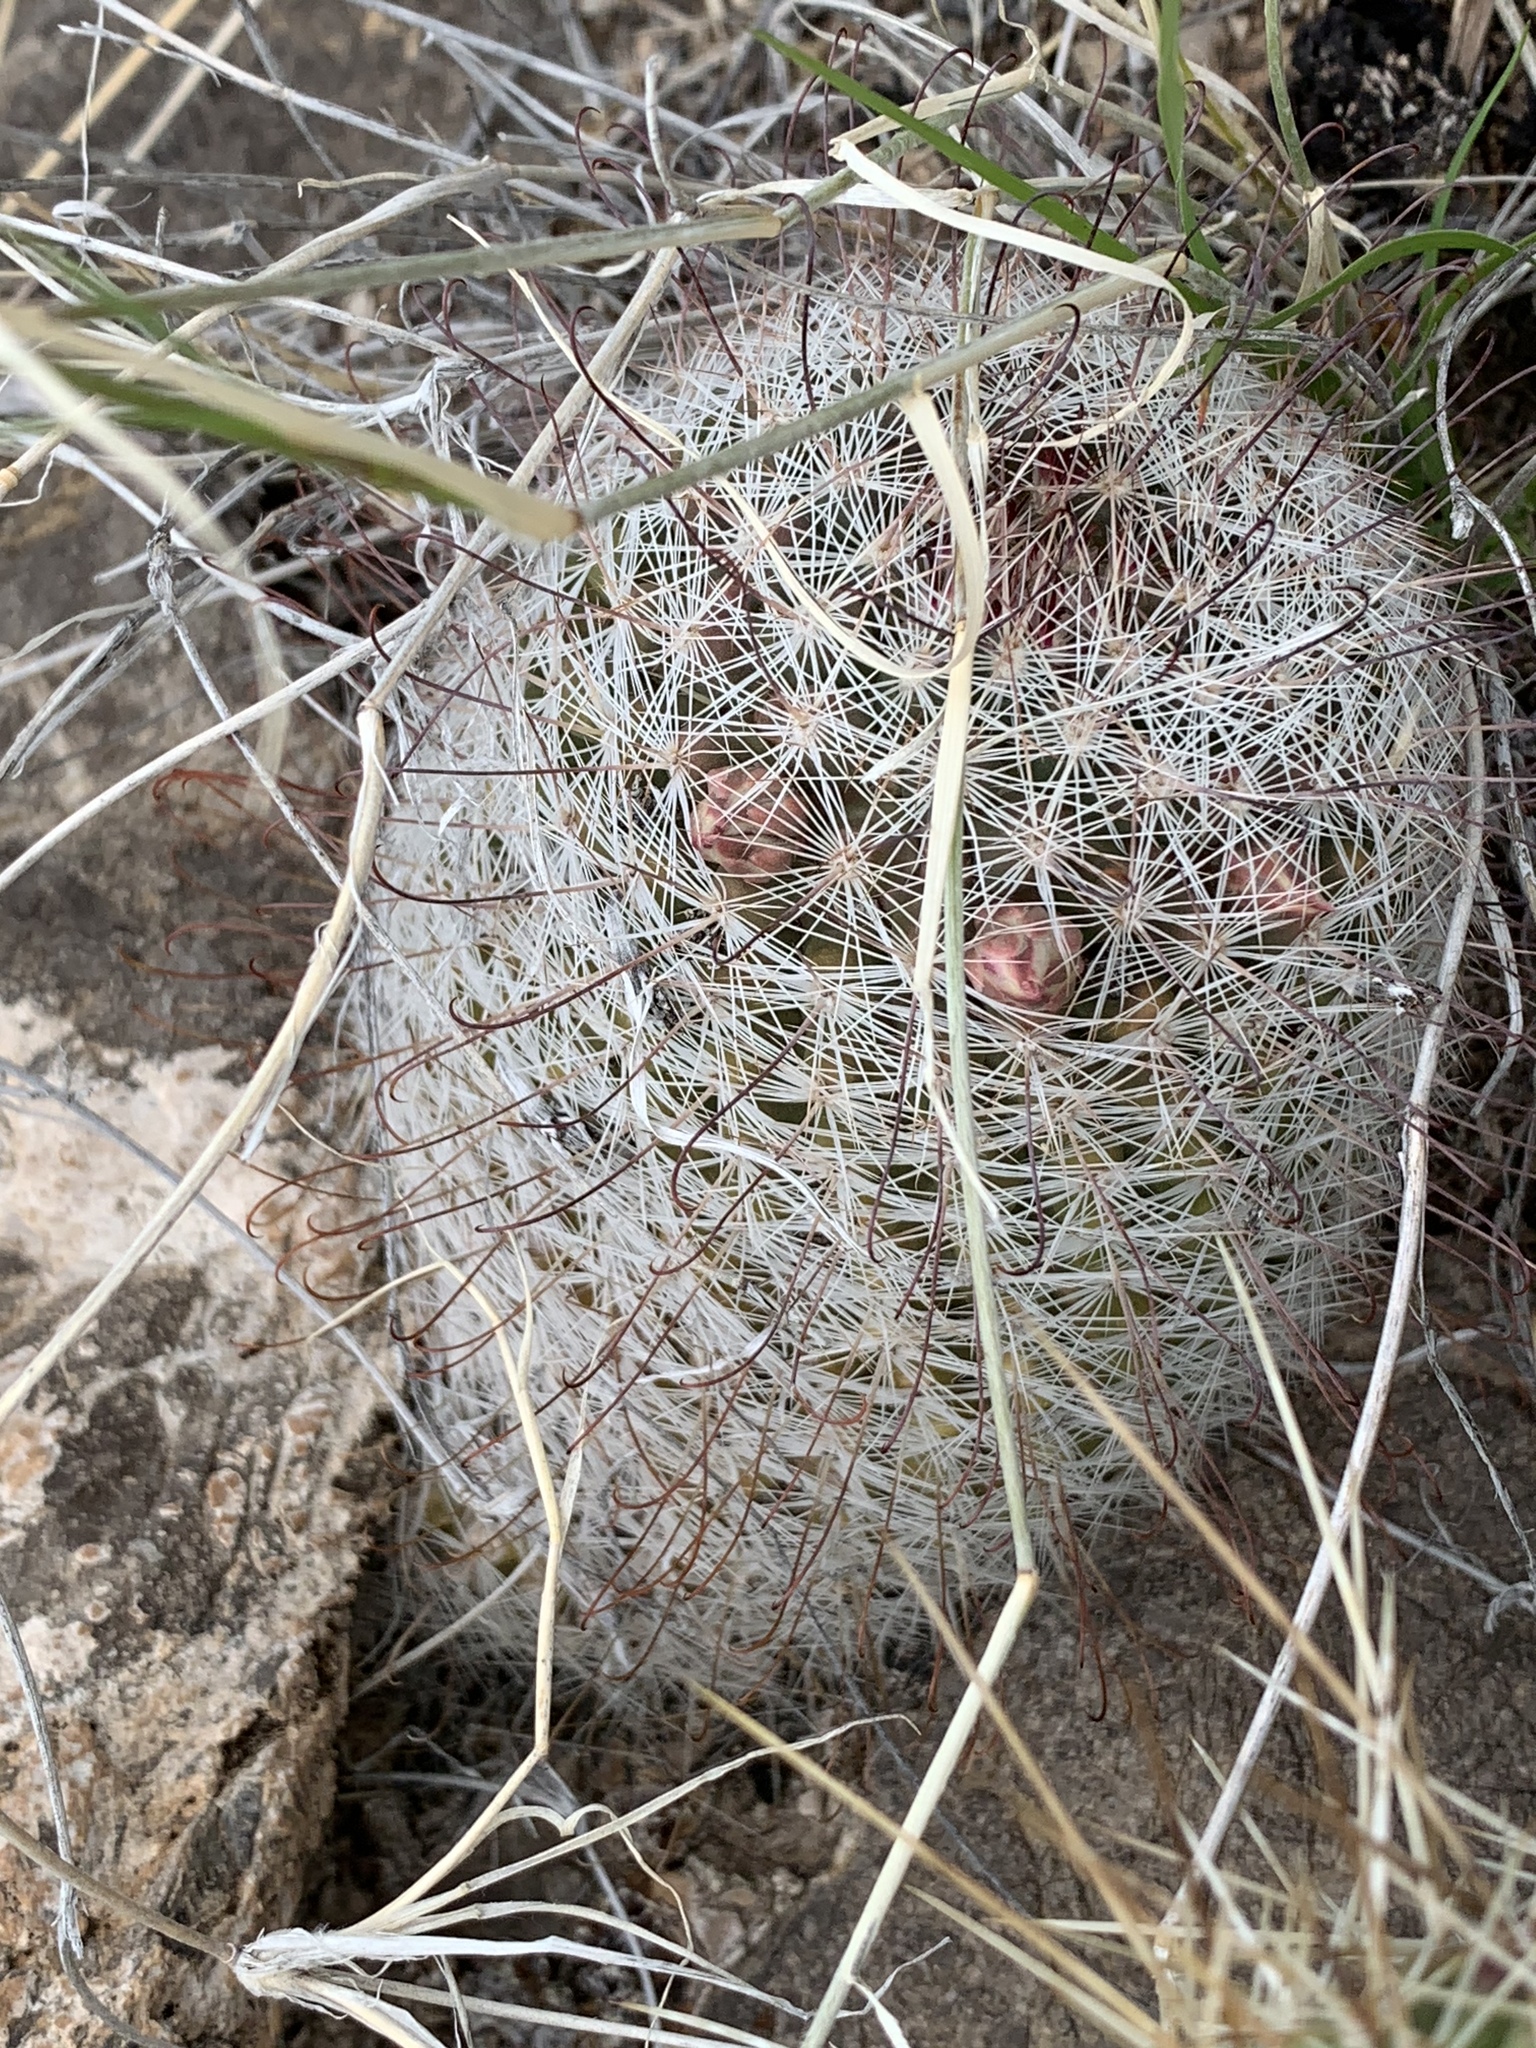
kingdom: Plantae
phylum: Tracheophyta
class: Magnoliopsida
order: Caryophyllales
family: Cactaceae
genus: Cochemiea
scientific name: Cochemiea grahamii
